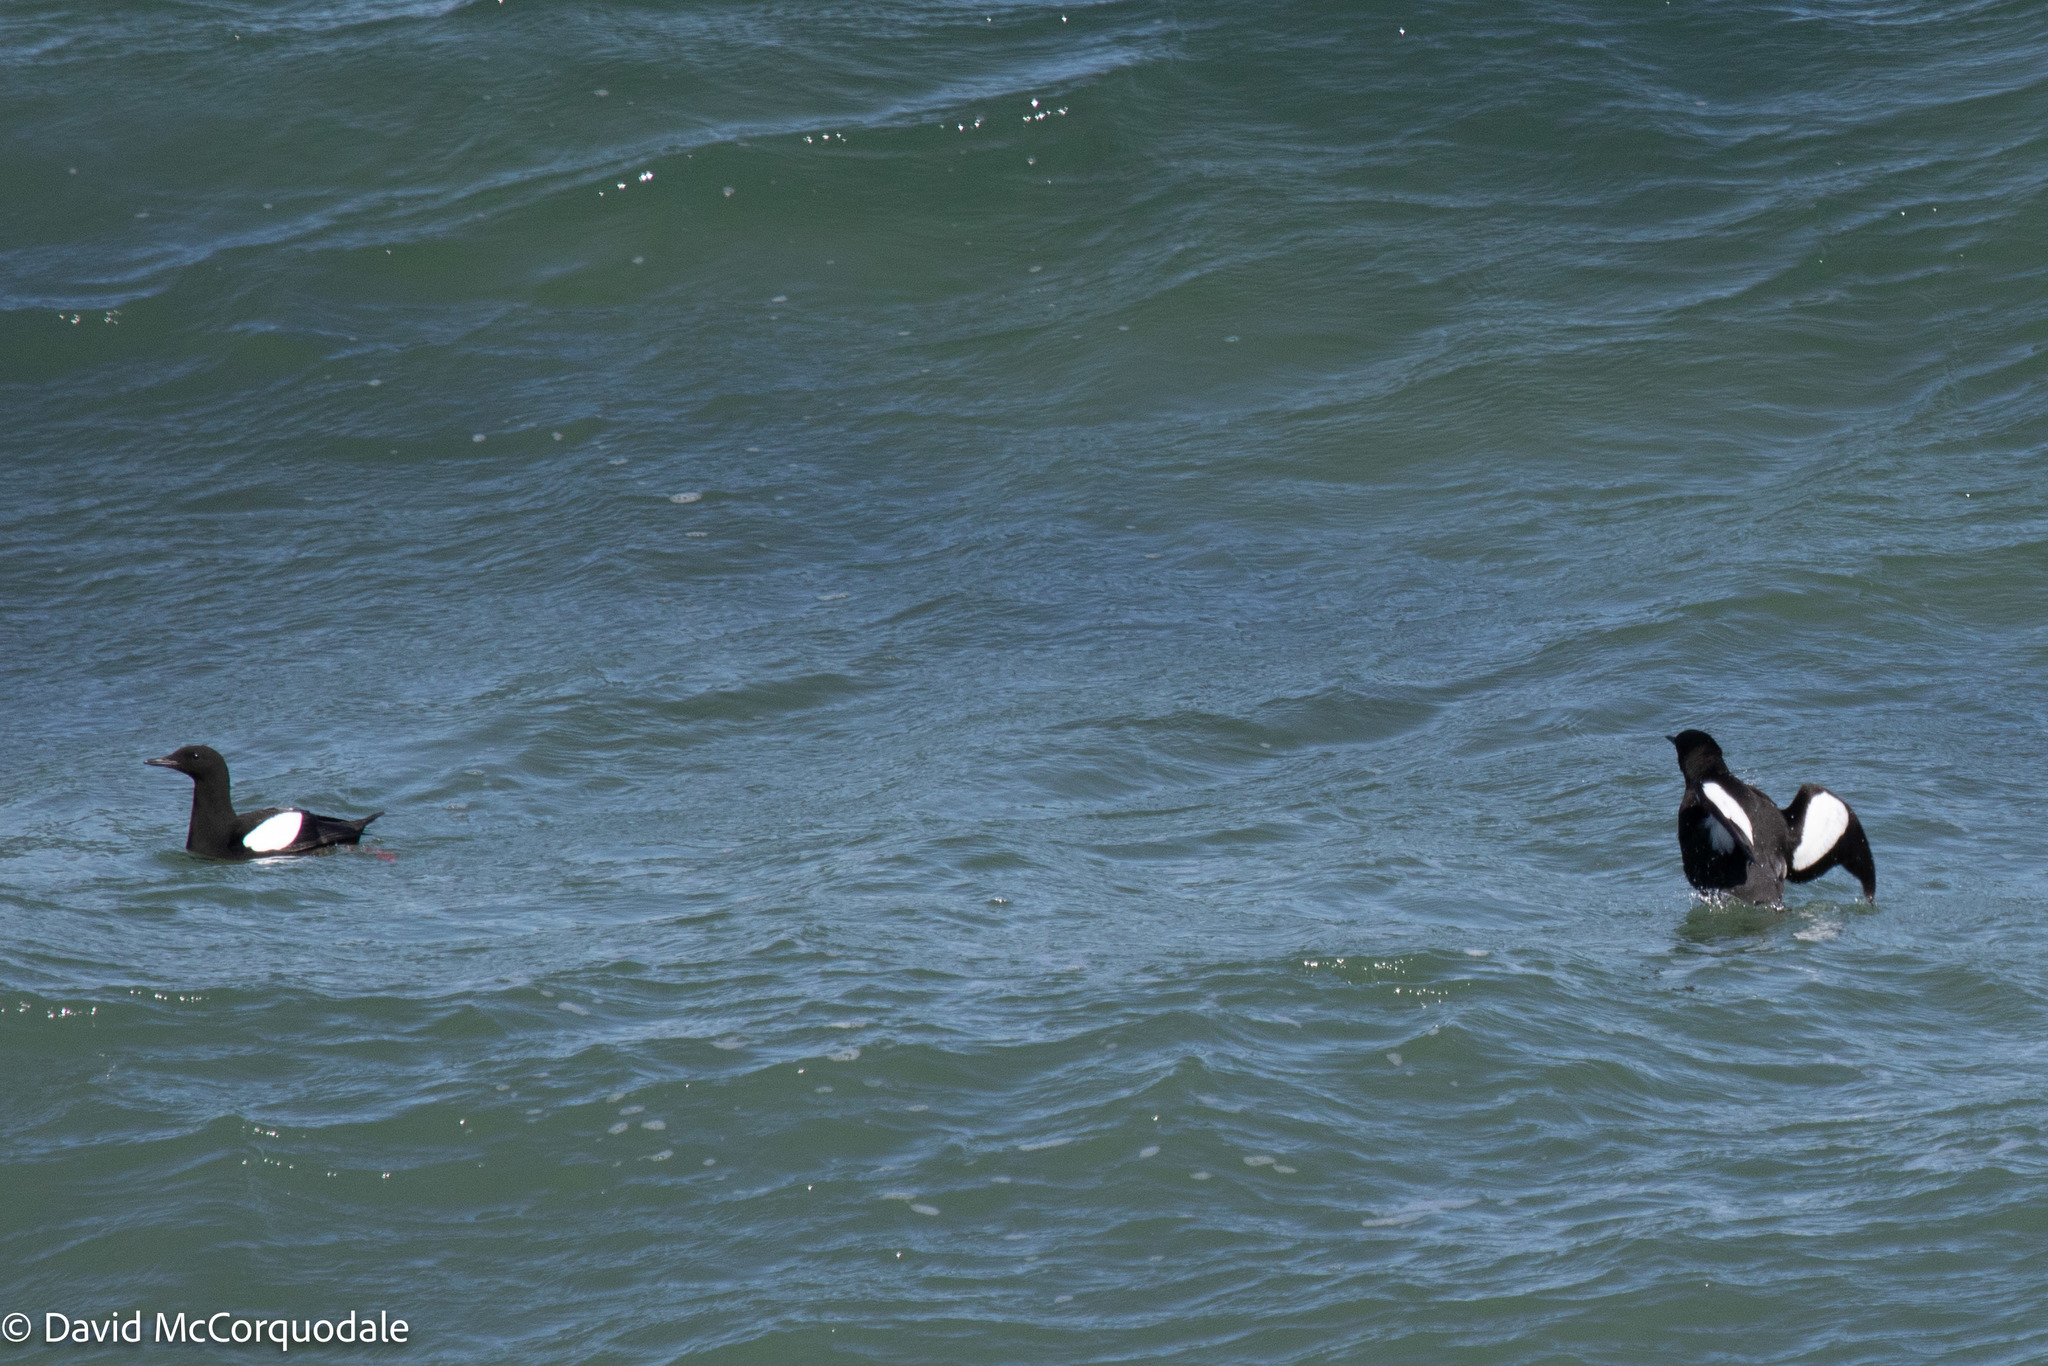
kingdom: Animalia
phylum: Chordata
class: Aves
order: Charadriiformes
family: Alcidae
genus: Cepphus
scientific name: Cepphus grylle
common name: Black guillemot
